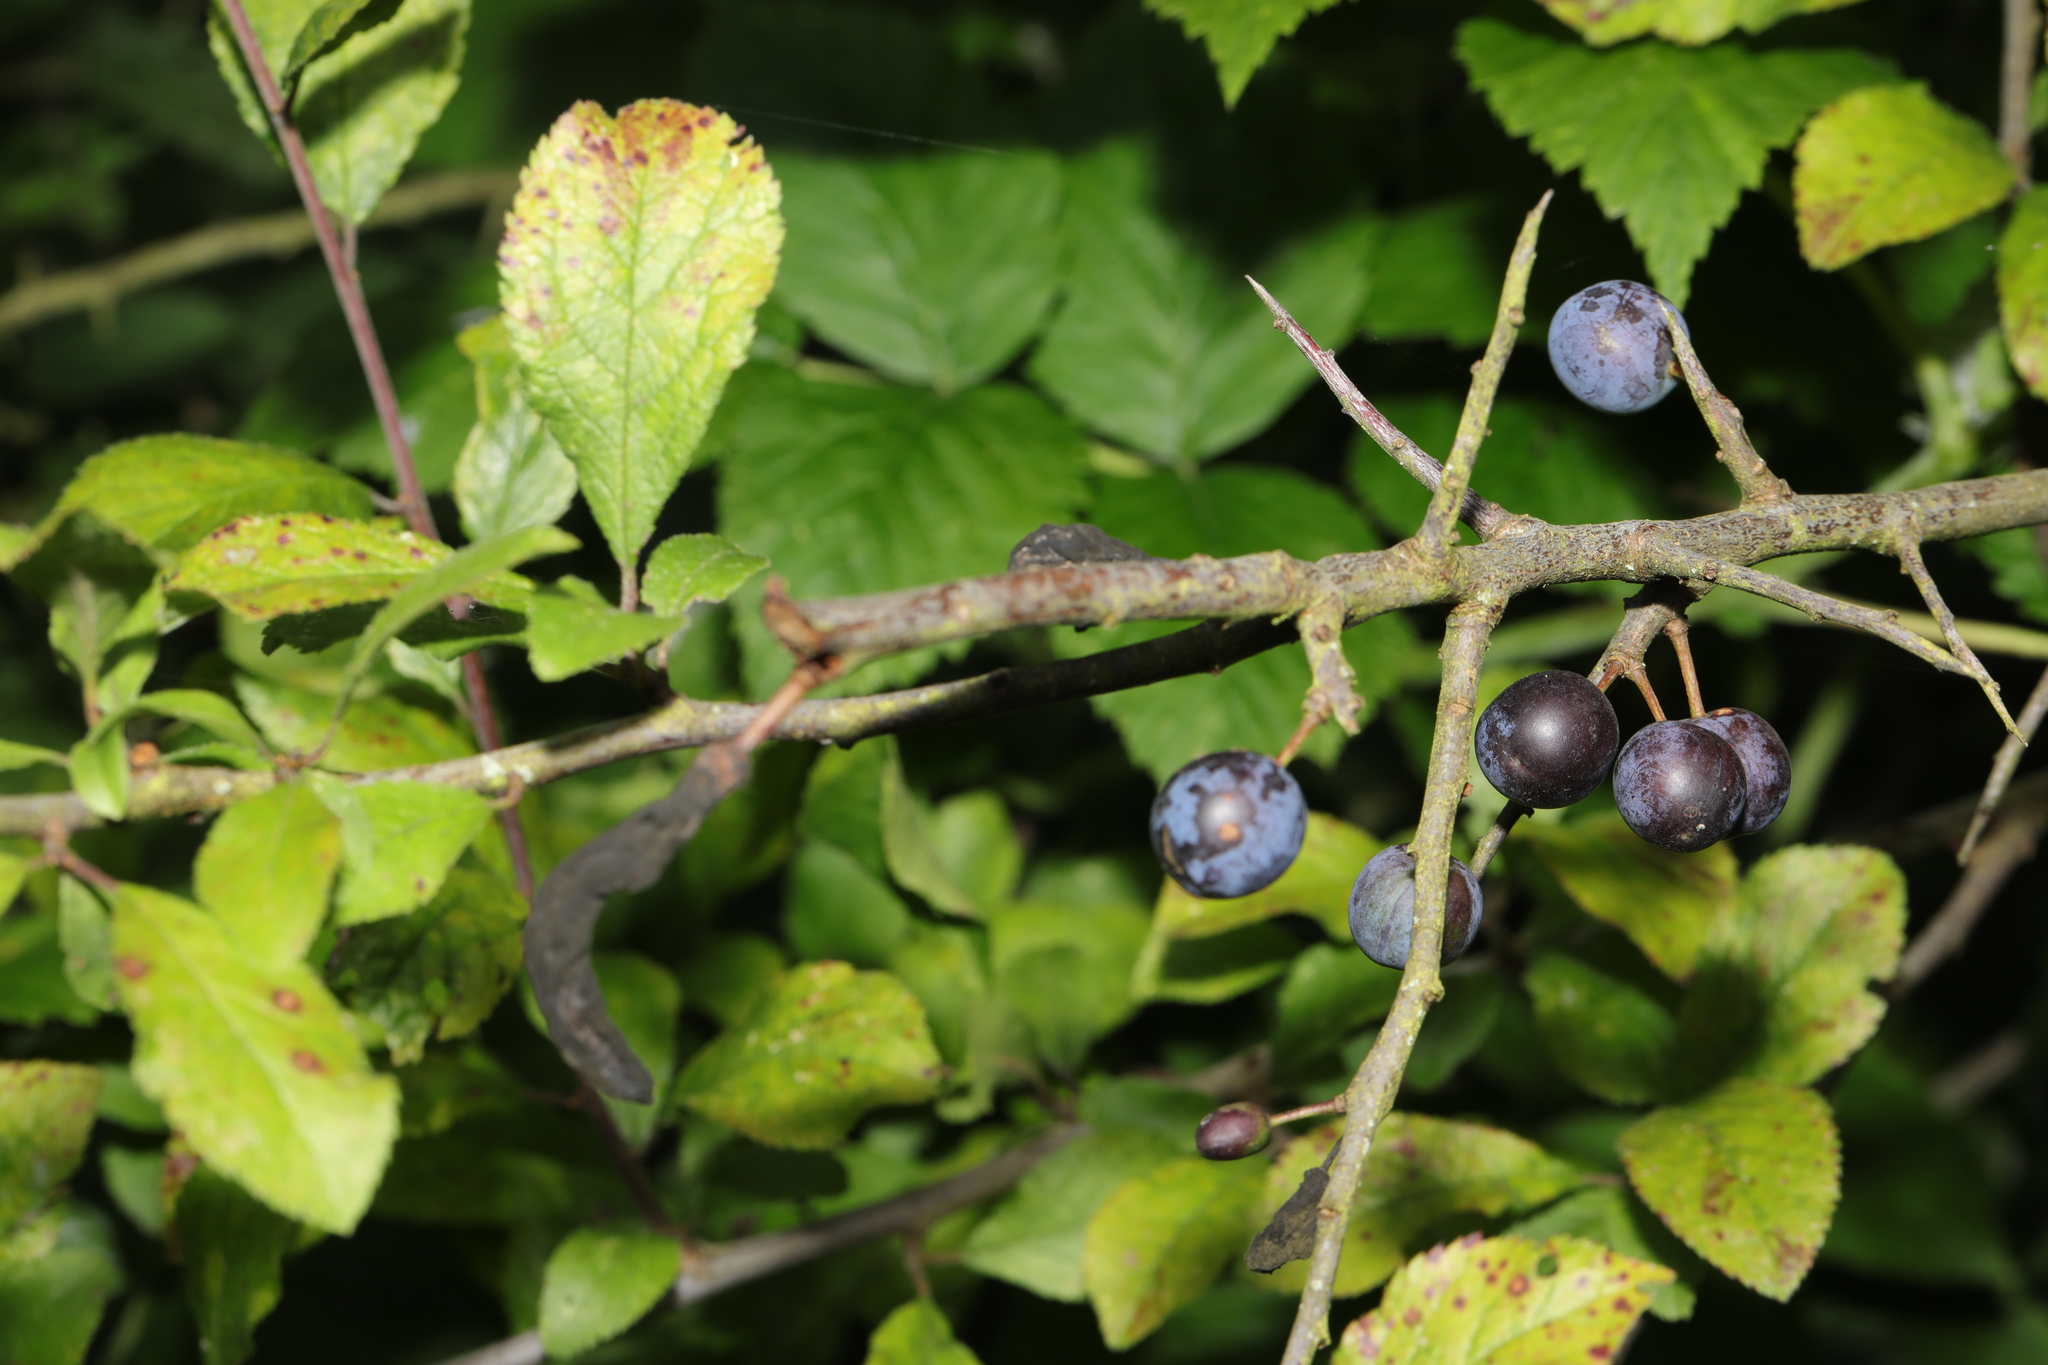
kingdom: Plantae
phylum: Tracheophyta
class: Magnoliopsida
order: Rosales
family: Rosaceae
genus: Prunus
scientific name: Prunus spinosa
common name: Blackthorn
